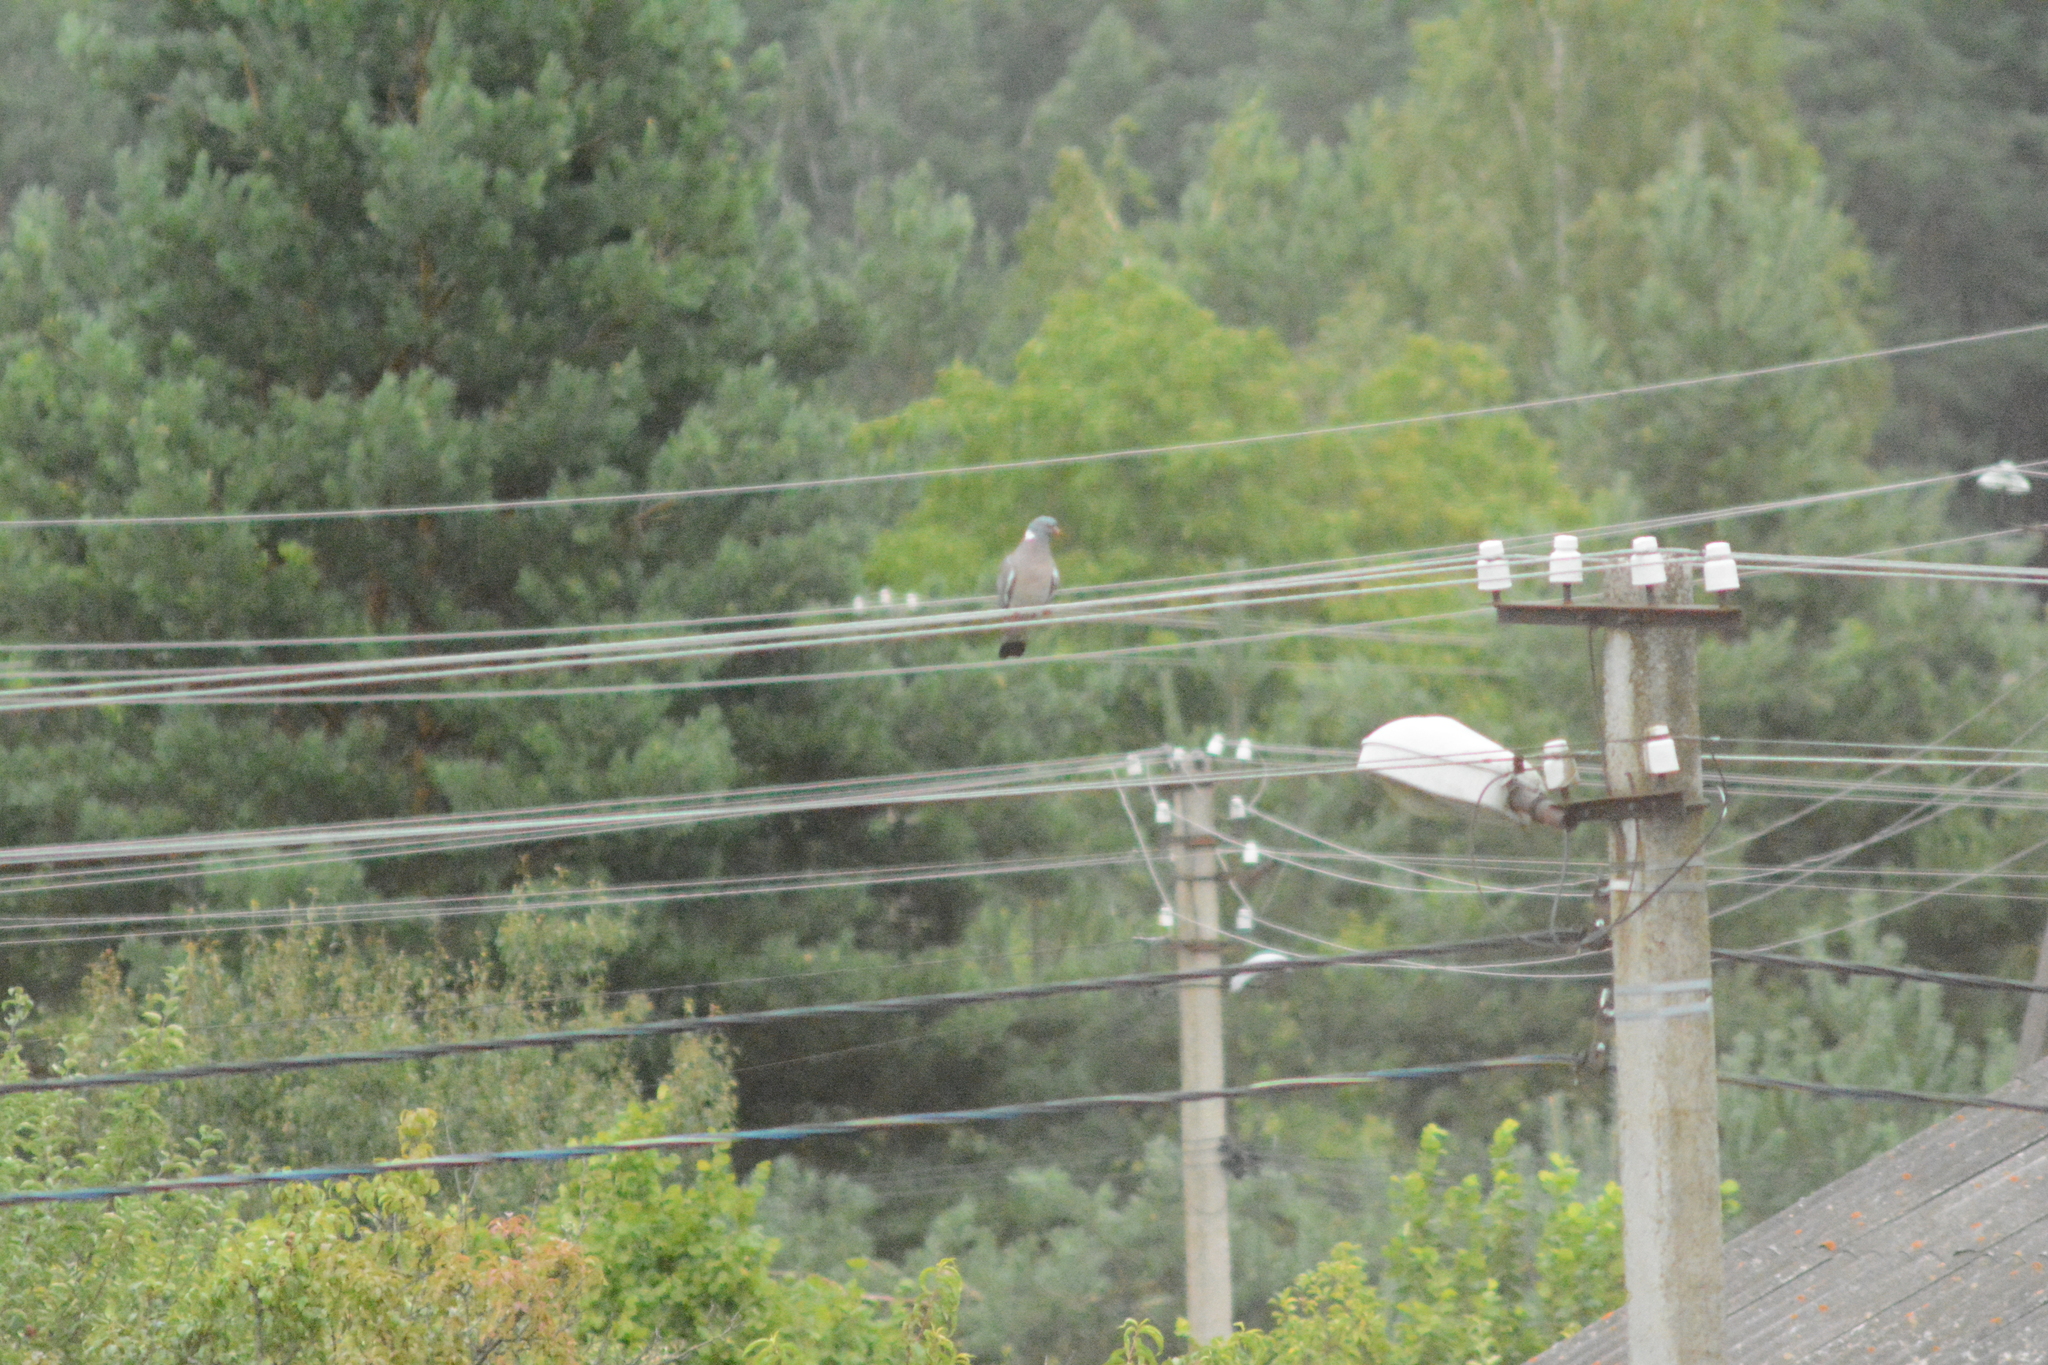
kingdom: Animalia
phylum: Chordata
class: Aves
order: Columbiformes
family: Columbidae
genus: Columba
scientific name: Columba palumbus
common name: Common wood pigeon
